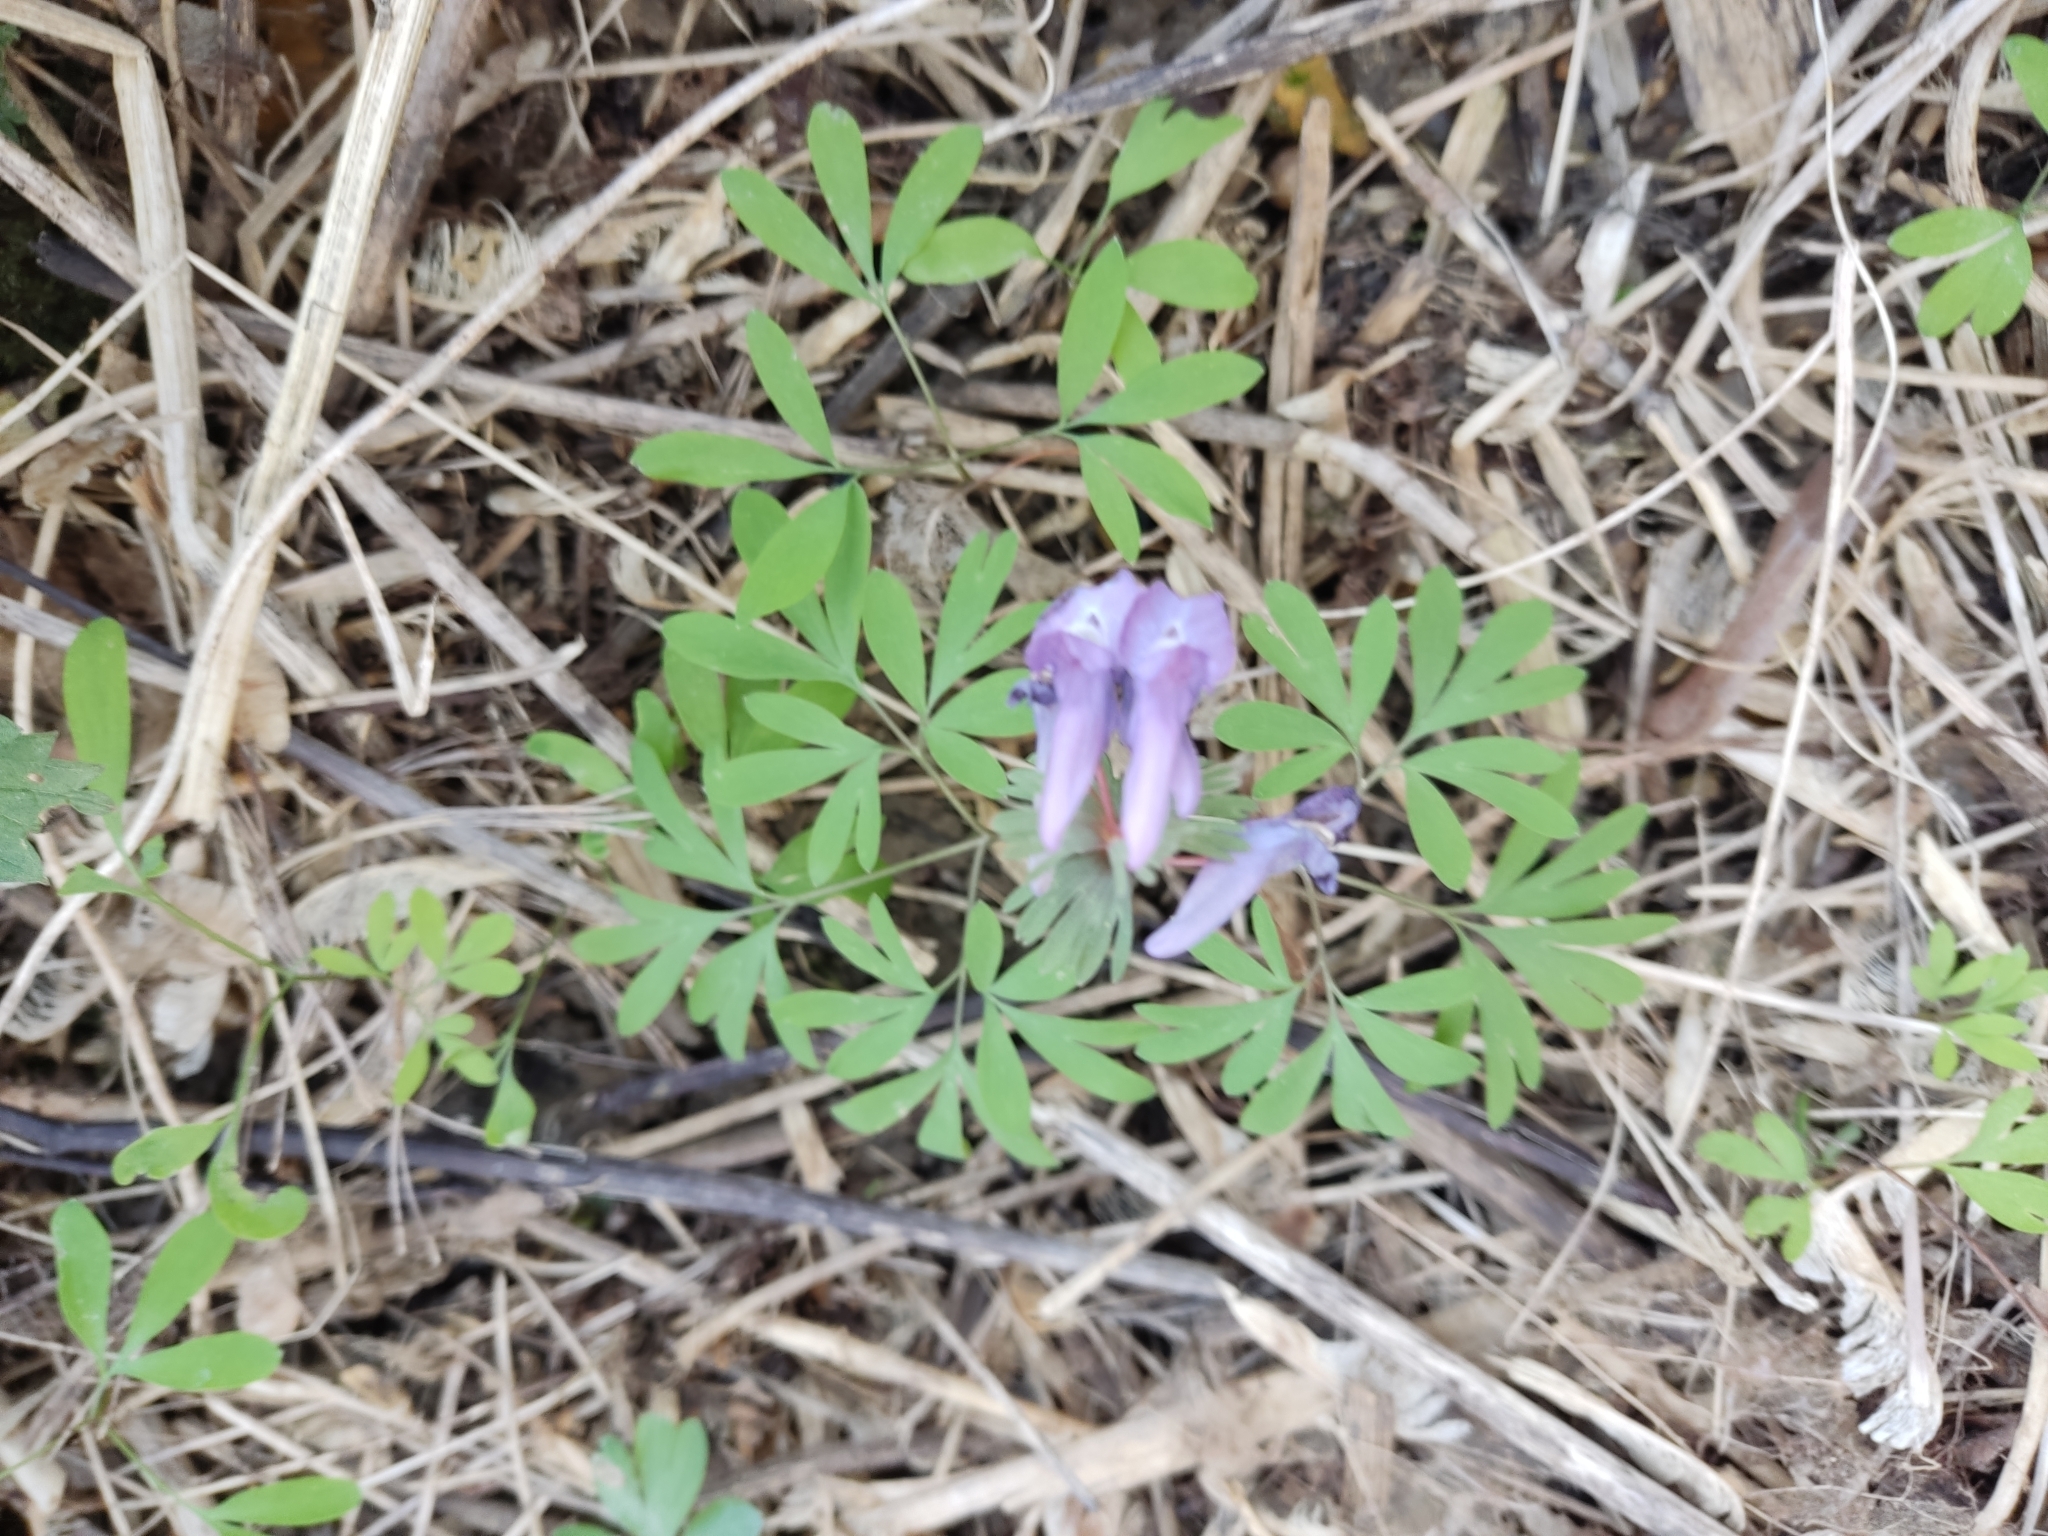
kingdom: Plantae
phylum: Tracheophyta
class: Magnoliopsida
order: Ranunculales
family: Papaveraceae
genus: Corydalis
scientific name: Corydalis solida
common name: Bird-in-a-bush
